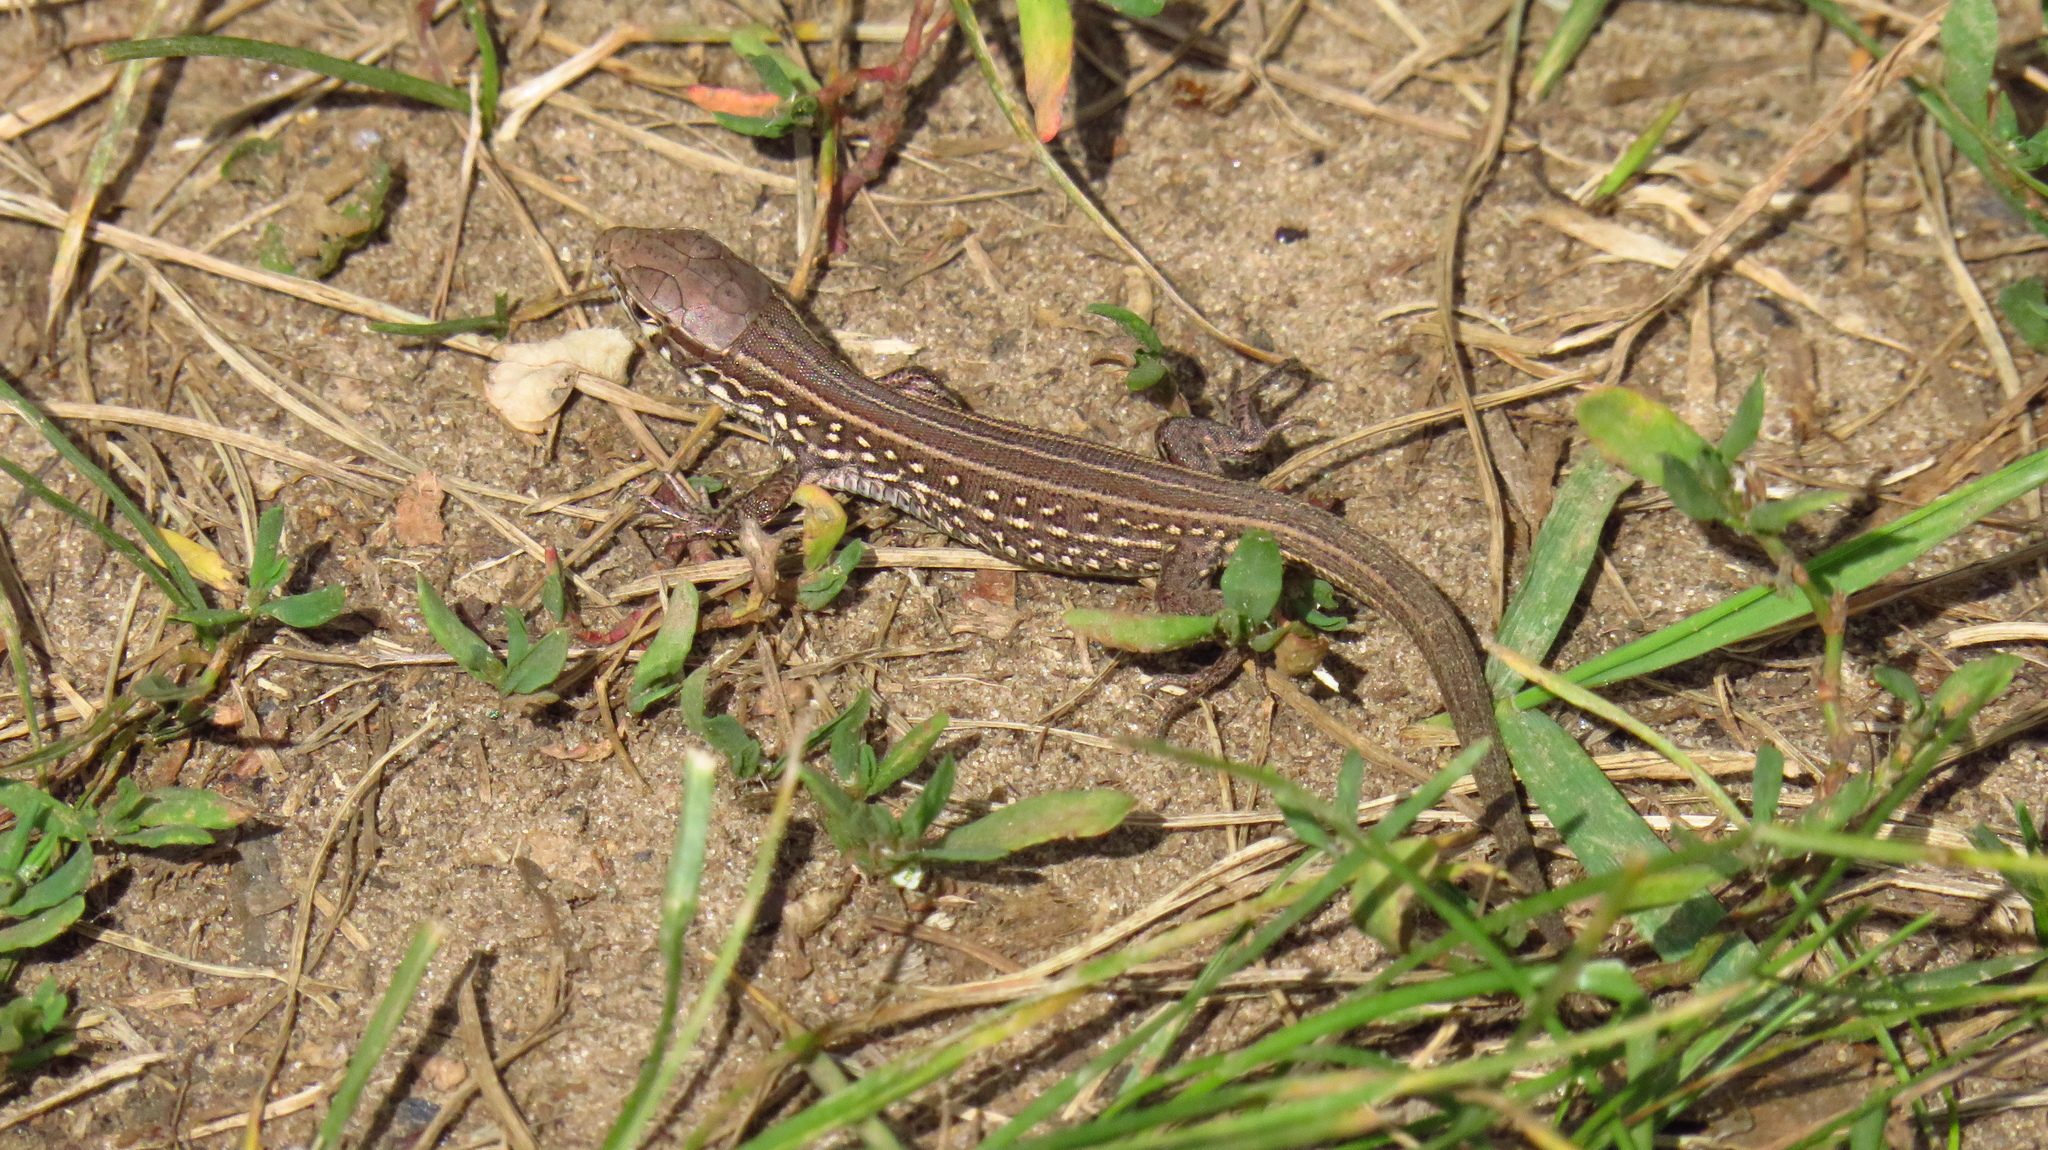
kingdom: Animalia
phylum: Chordata
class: Squamata
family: Lacertidae
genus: Lacerta
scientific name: Lacerta agilis
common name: Sand lizard
